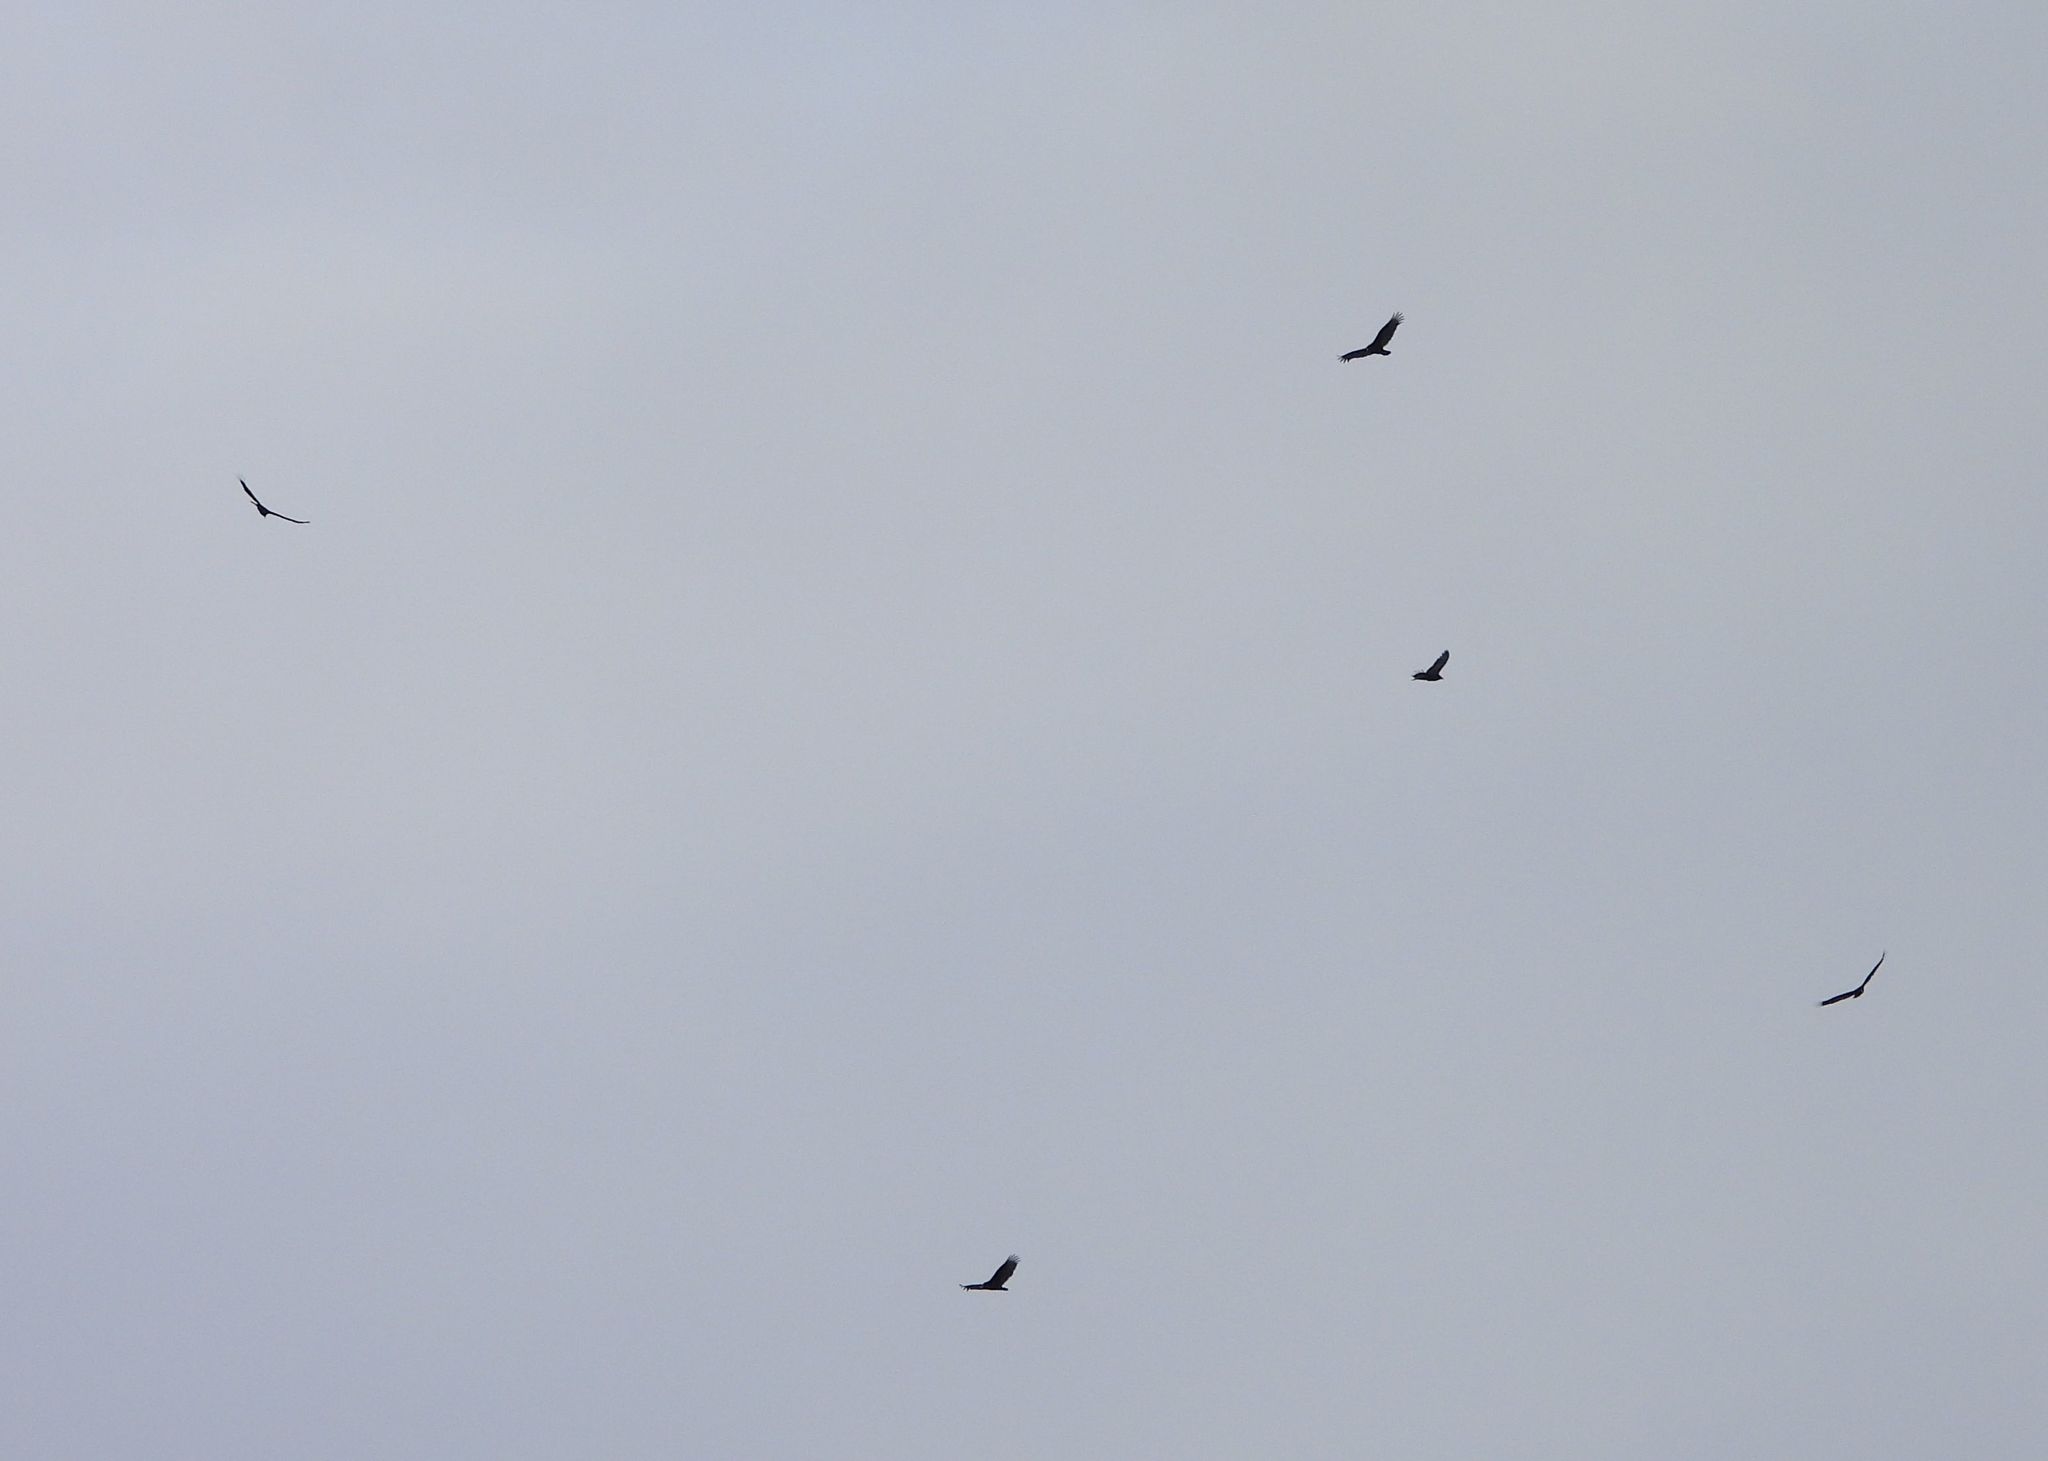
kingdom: Animalia
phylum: Chordata
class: Aves
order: Accipitriformes
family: Cathartidae
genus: Cathartes
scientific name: Cathartes aura
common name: Turkey vulture
